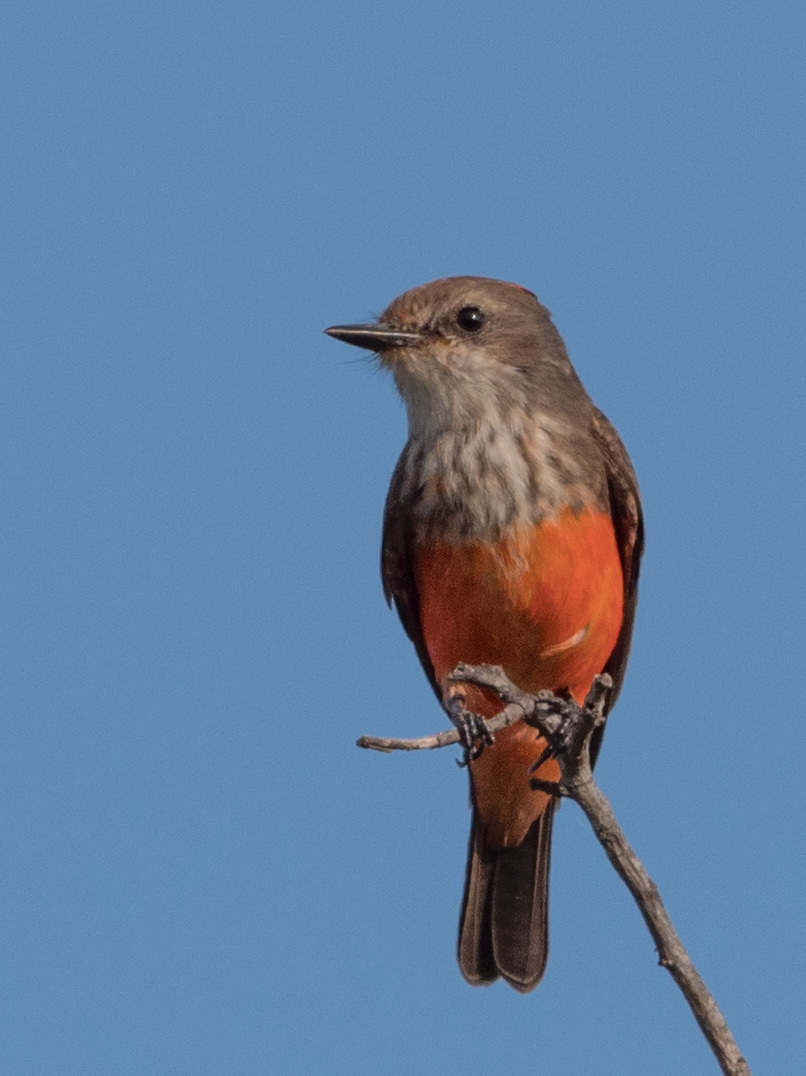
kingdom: Animalia
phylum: Chordata
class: Aves
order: Passeriformes
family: Tyrannidae
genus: Pyrocephalus
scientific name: Pyrocephalus rubinus
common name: Vermilion flycatcher
